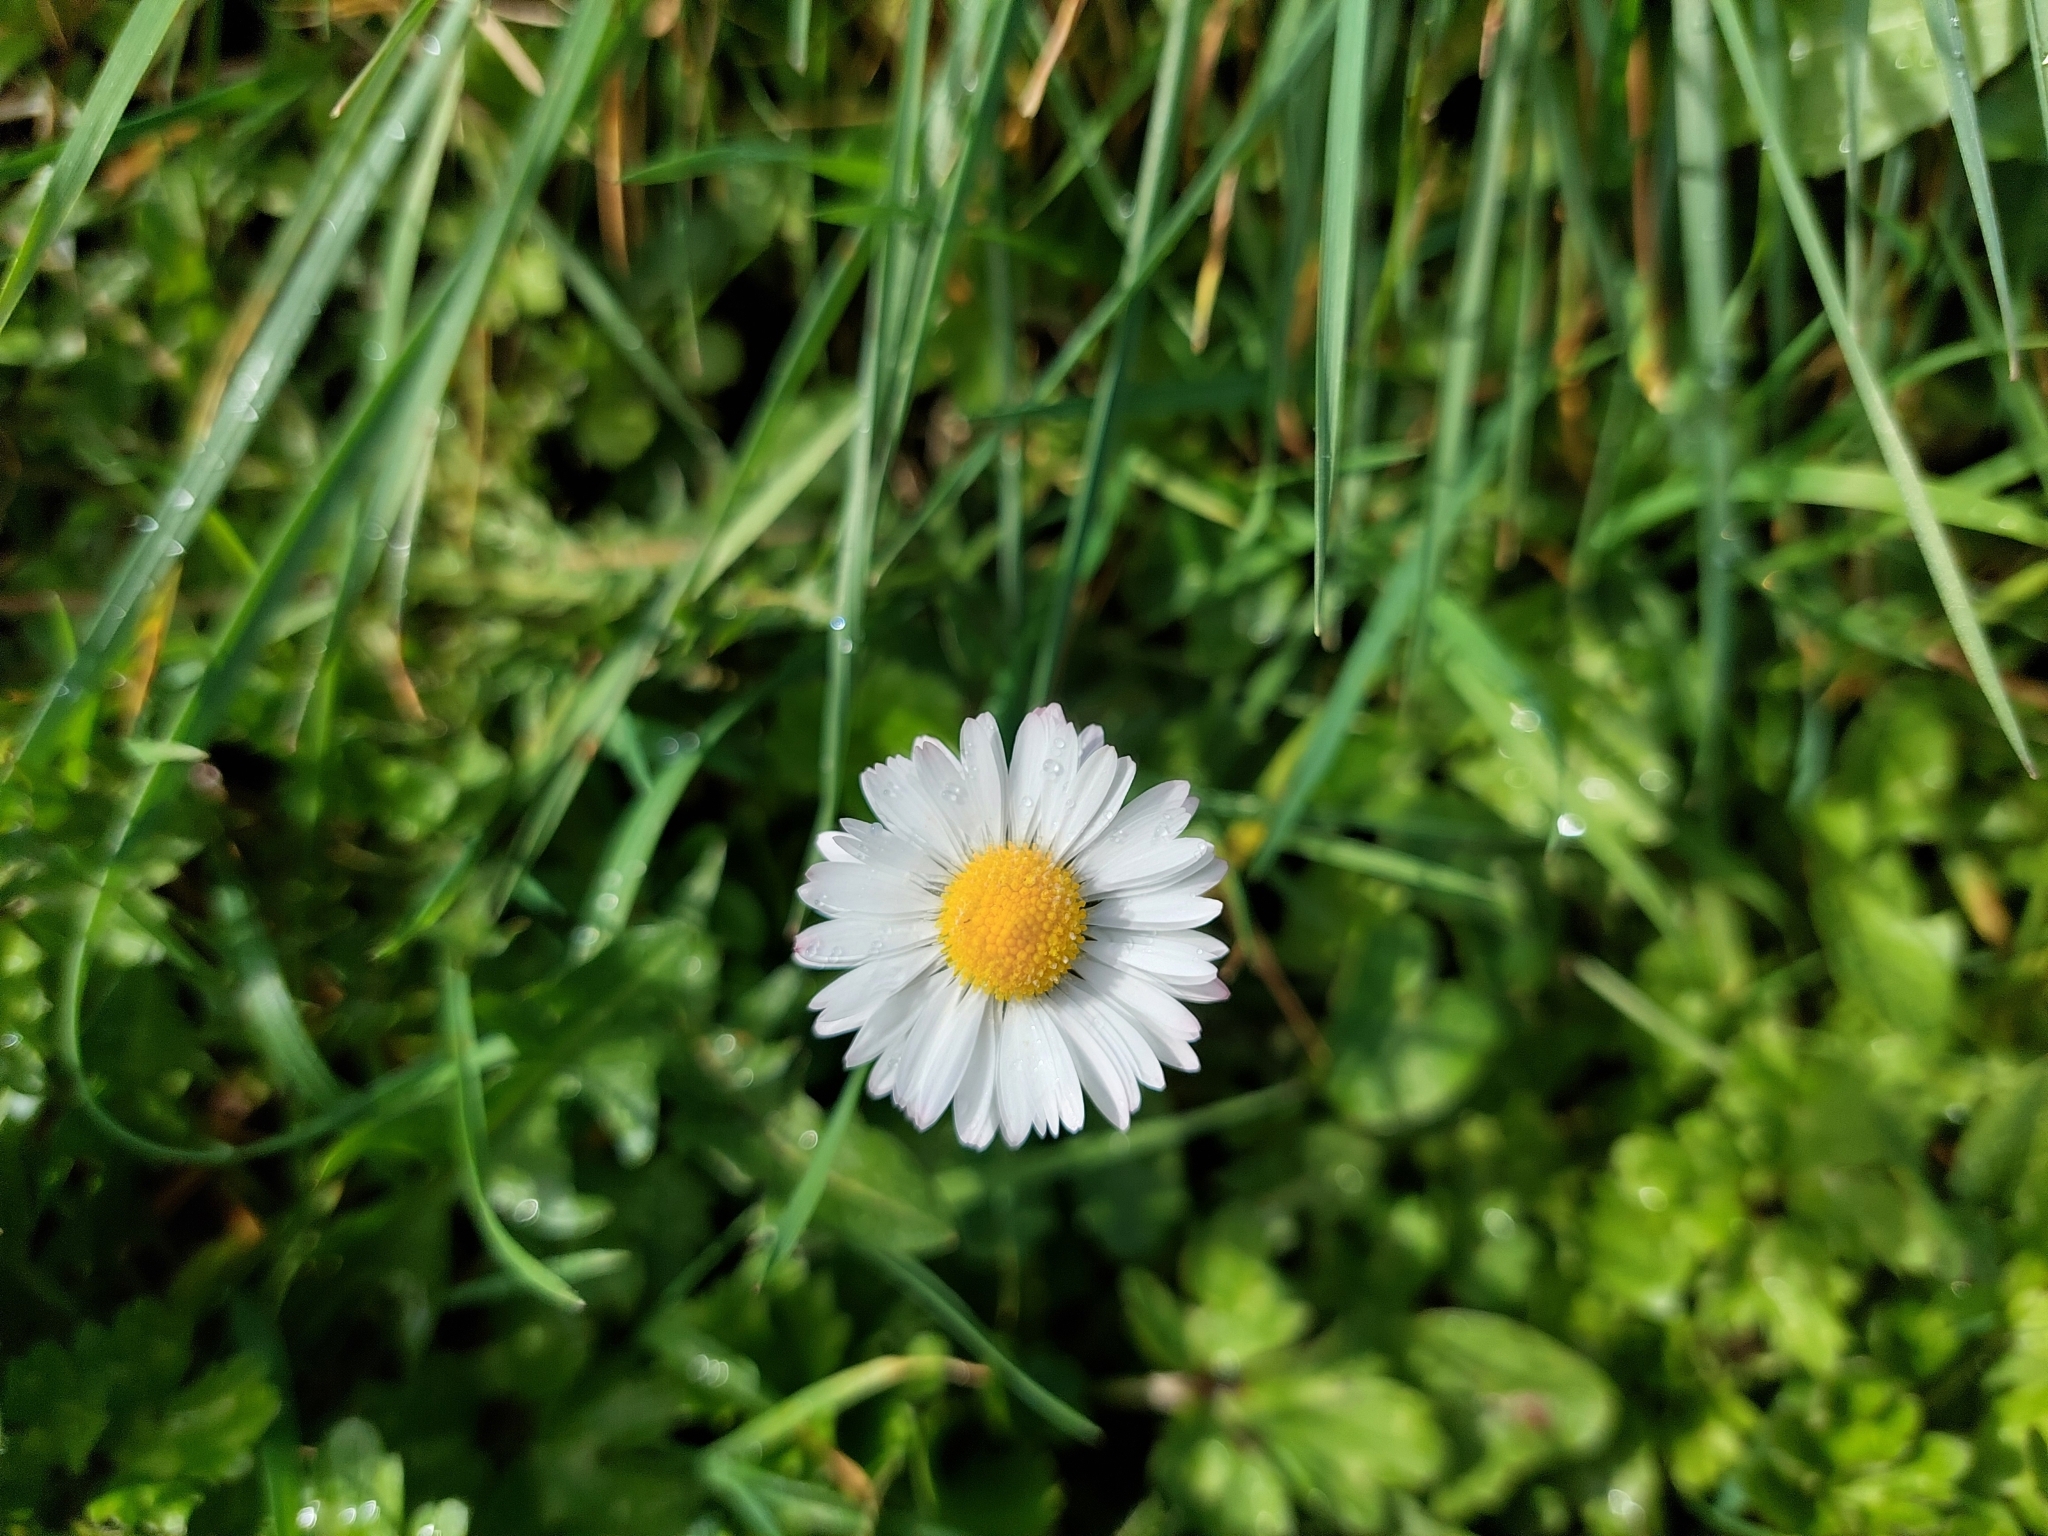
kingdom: Plantae
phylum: Tracheophyta
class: Magnoliopsida
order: Asterales
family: Asteraceae
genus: Bellis
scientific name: Bellis perennis
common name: Lawndaisy
